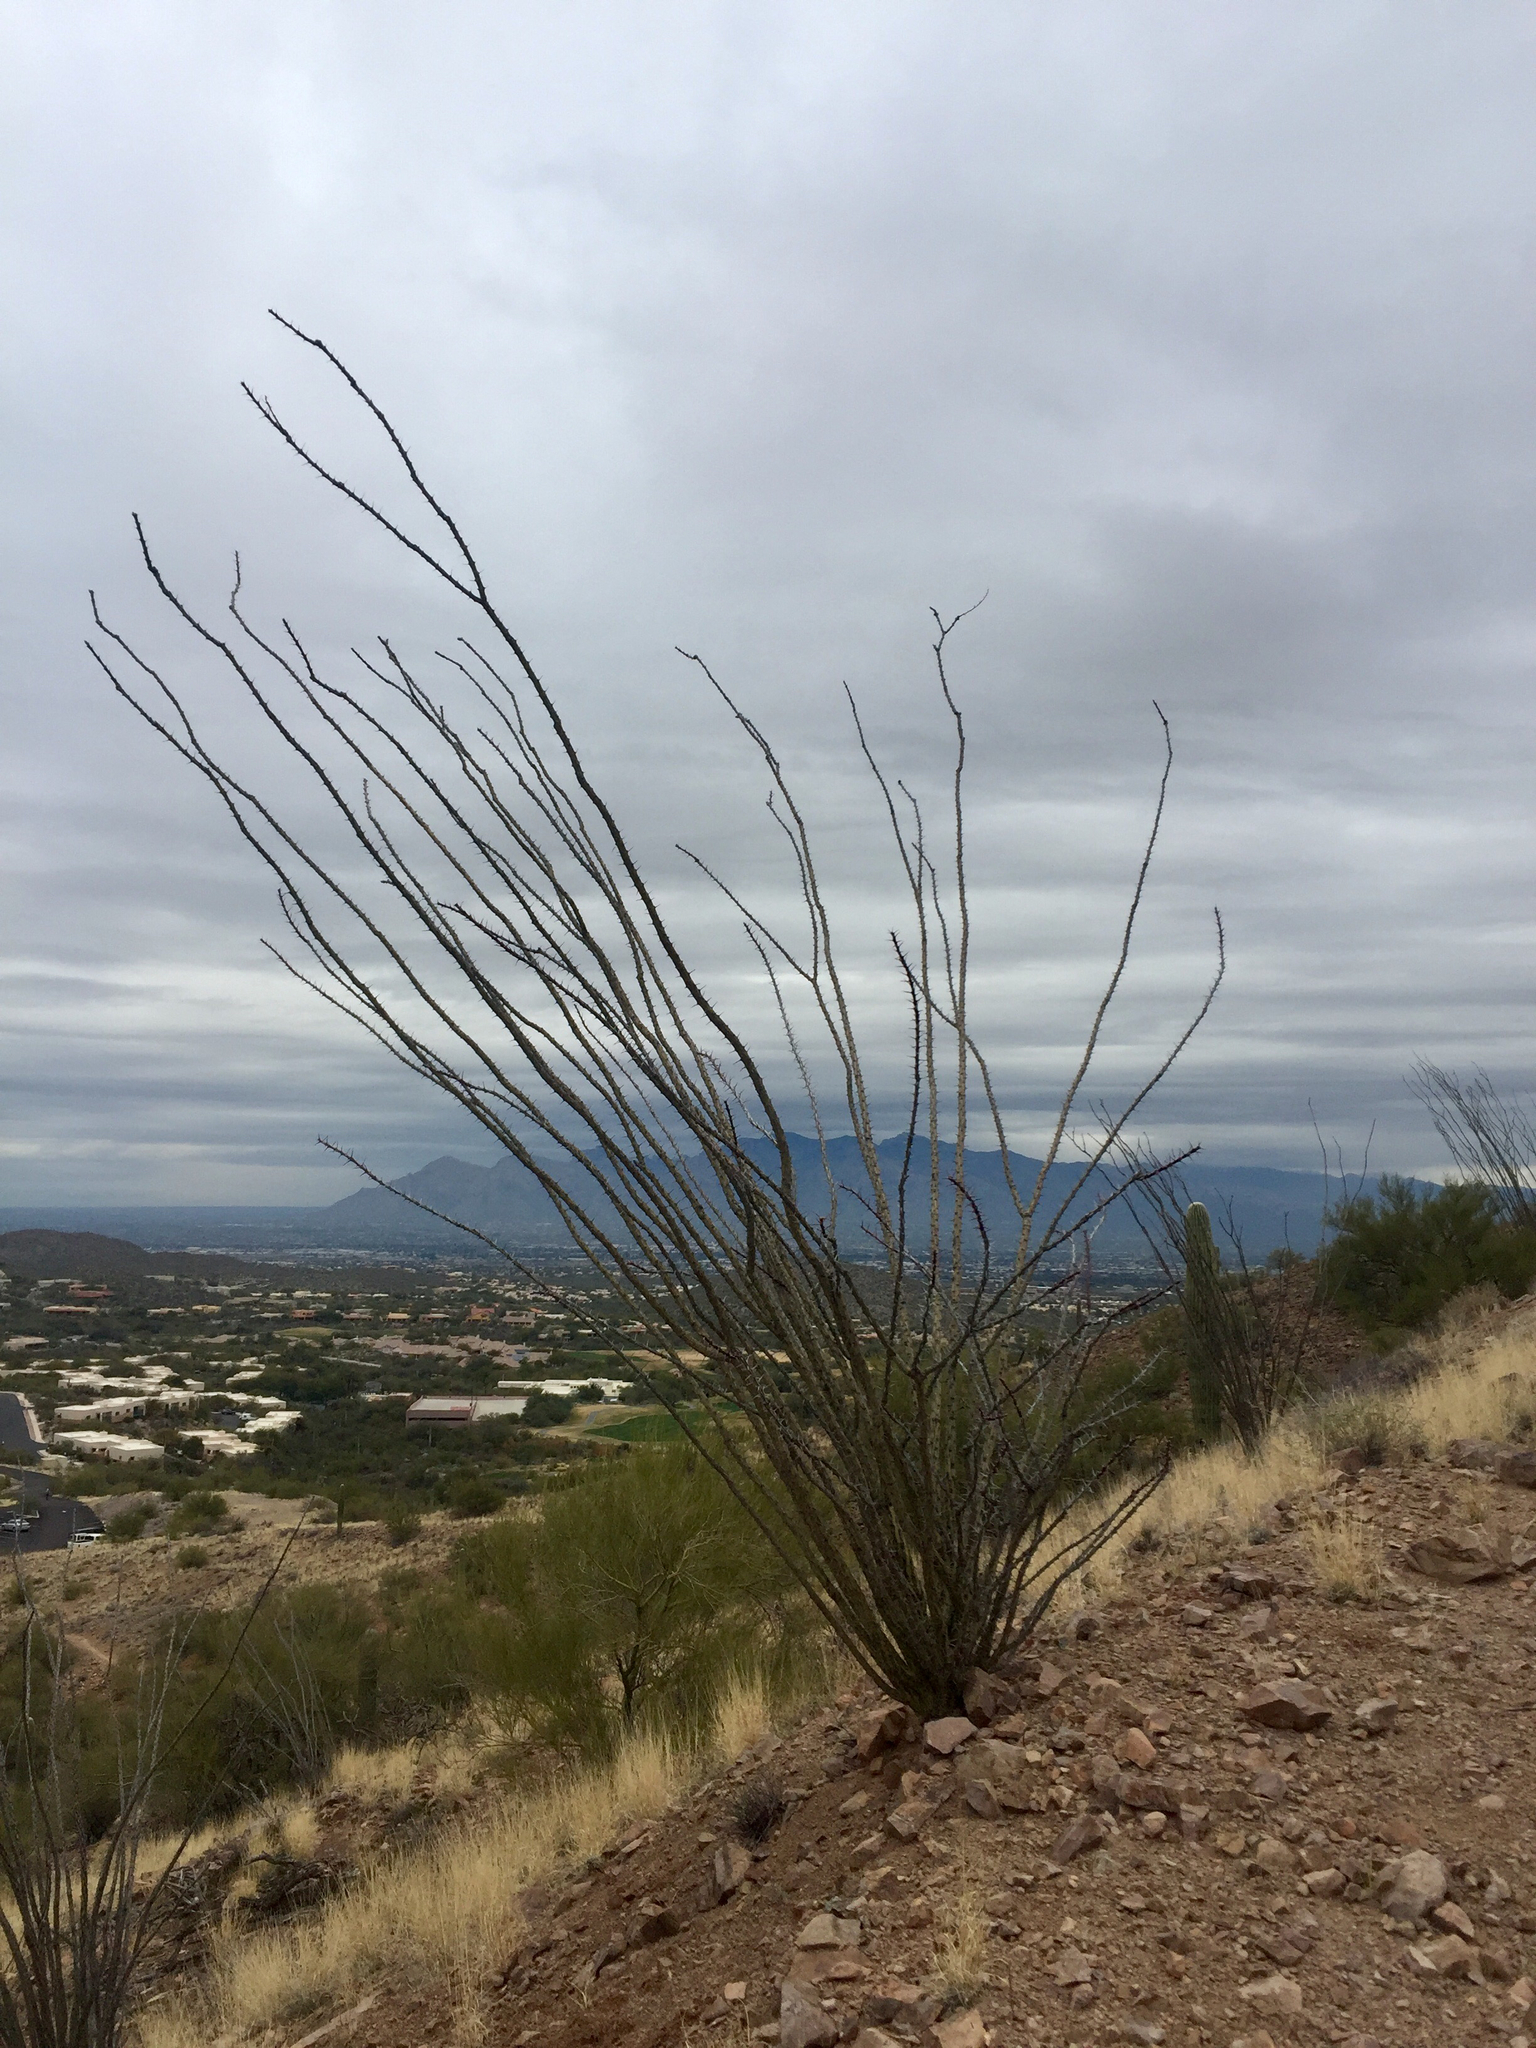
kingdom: Plantae
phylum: Tracheophyta
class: Magnoliopsida
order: Ericales
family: Fouquieriaceae
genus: Fouquieria
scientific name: Fouquieria splendens
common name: Vine-cactus
